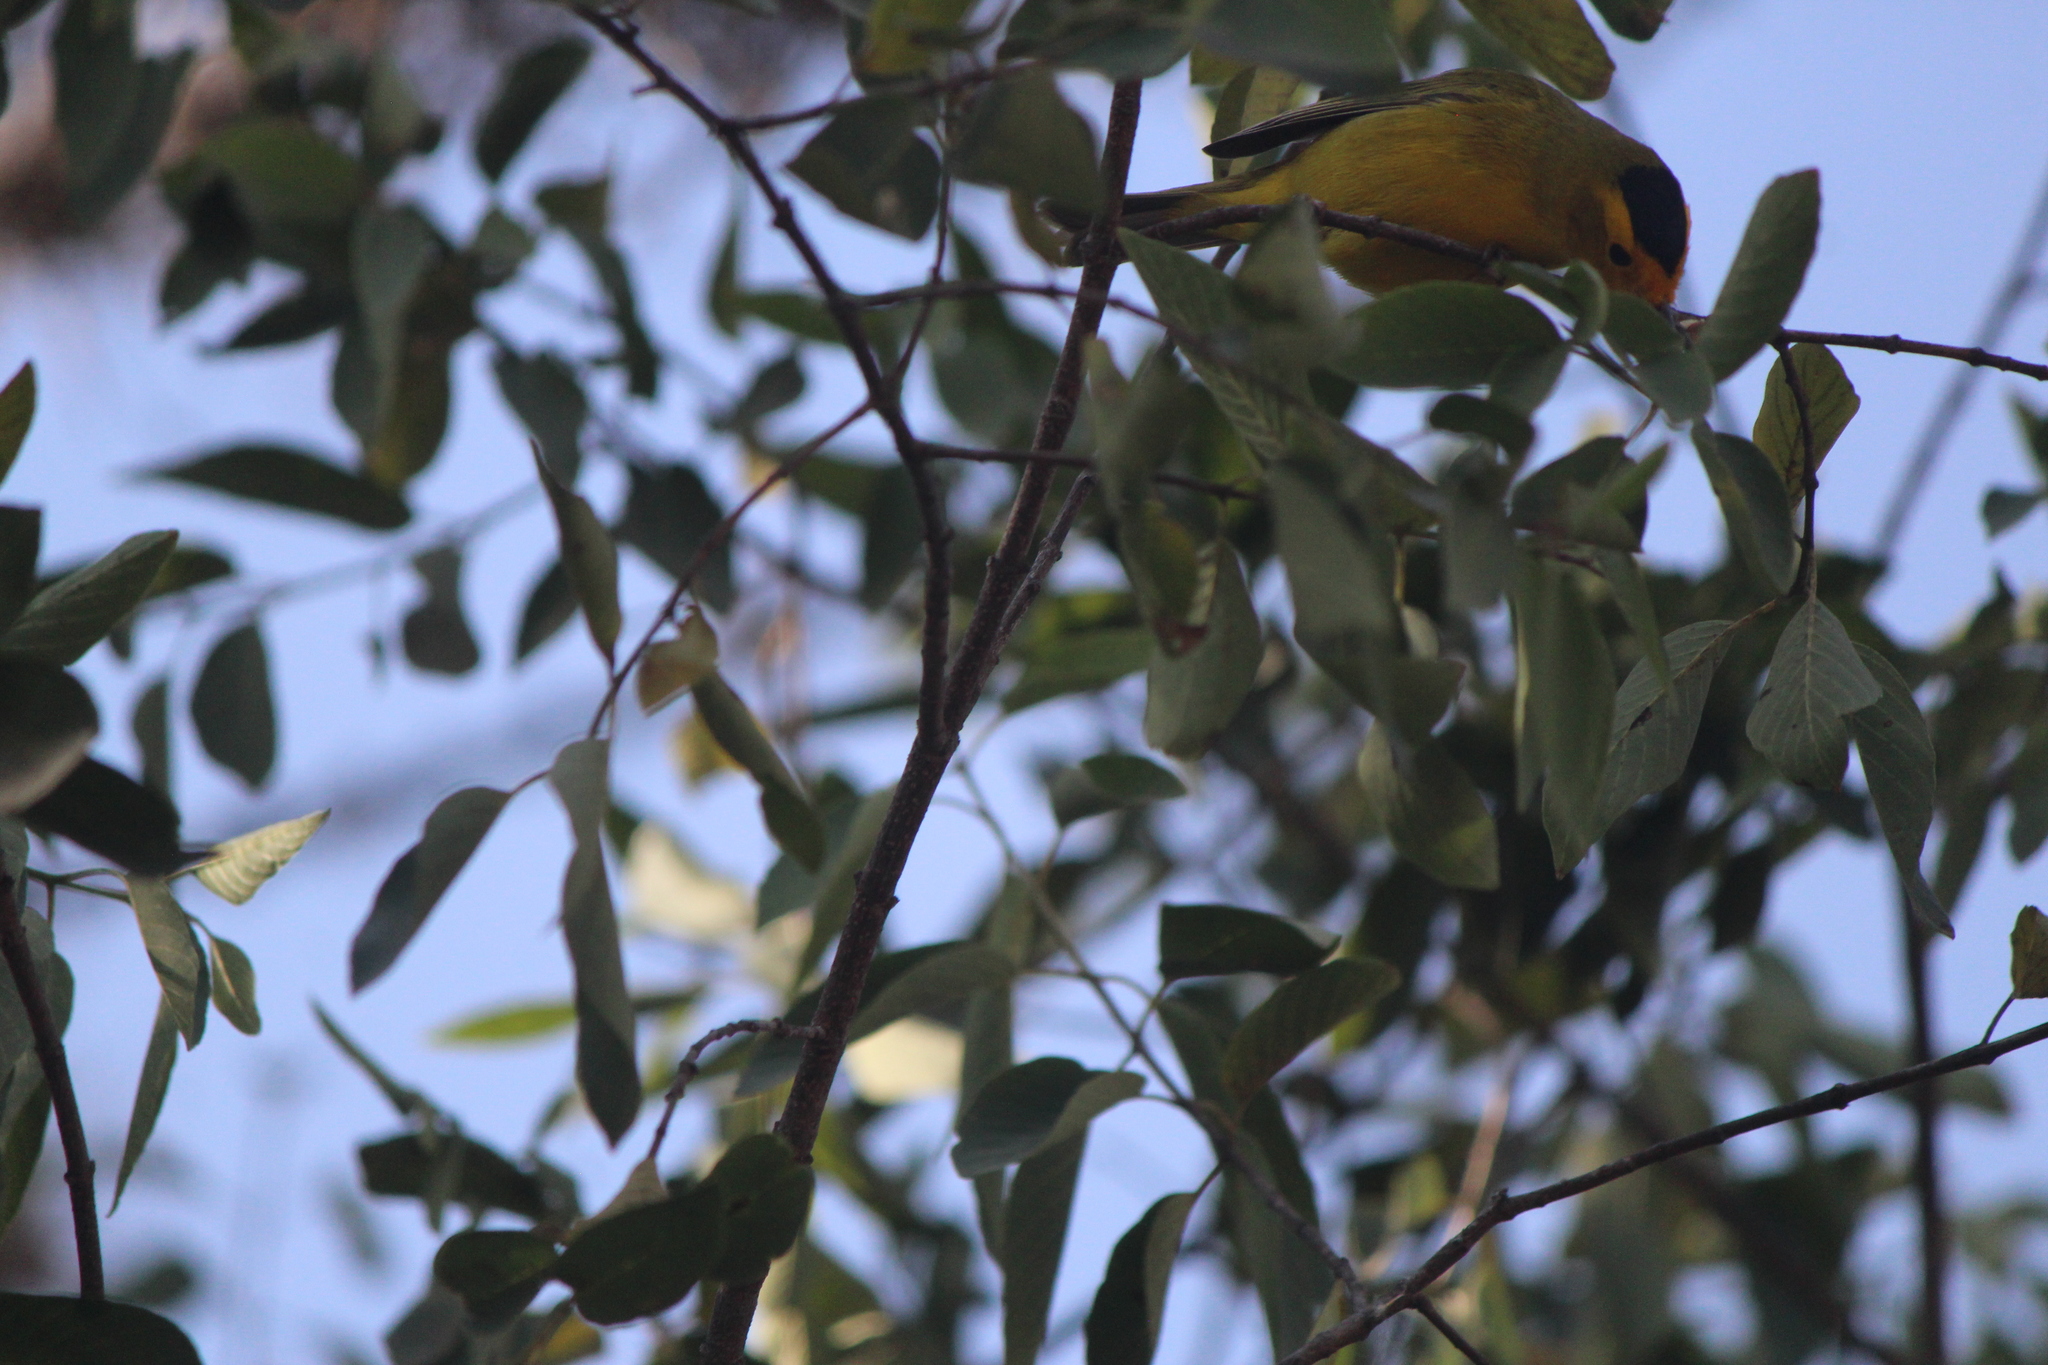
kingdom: Animalia
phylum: Chordata
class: Aves
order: Passeriformes
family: Parulidae
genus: Cardellina
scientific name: Cardellina pusilla
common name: Wilson's warbler
